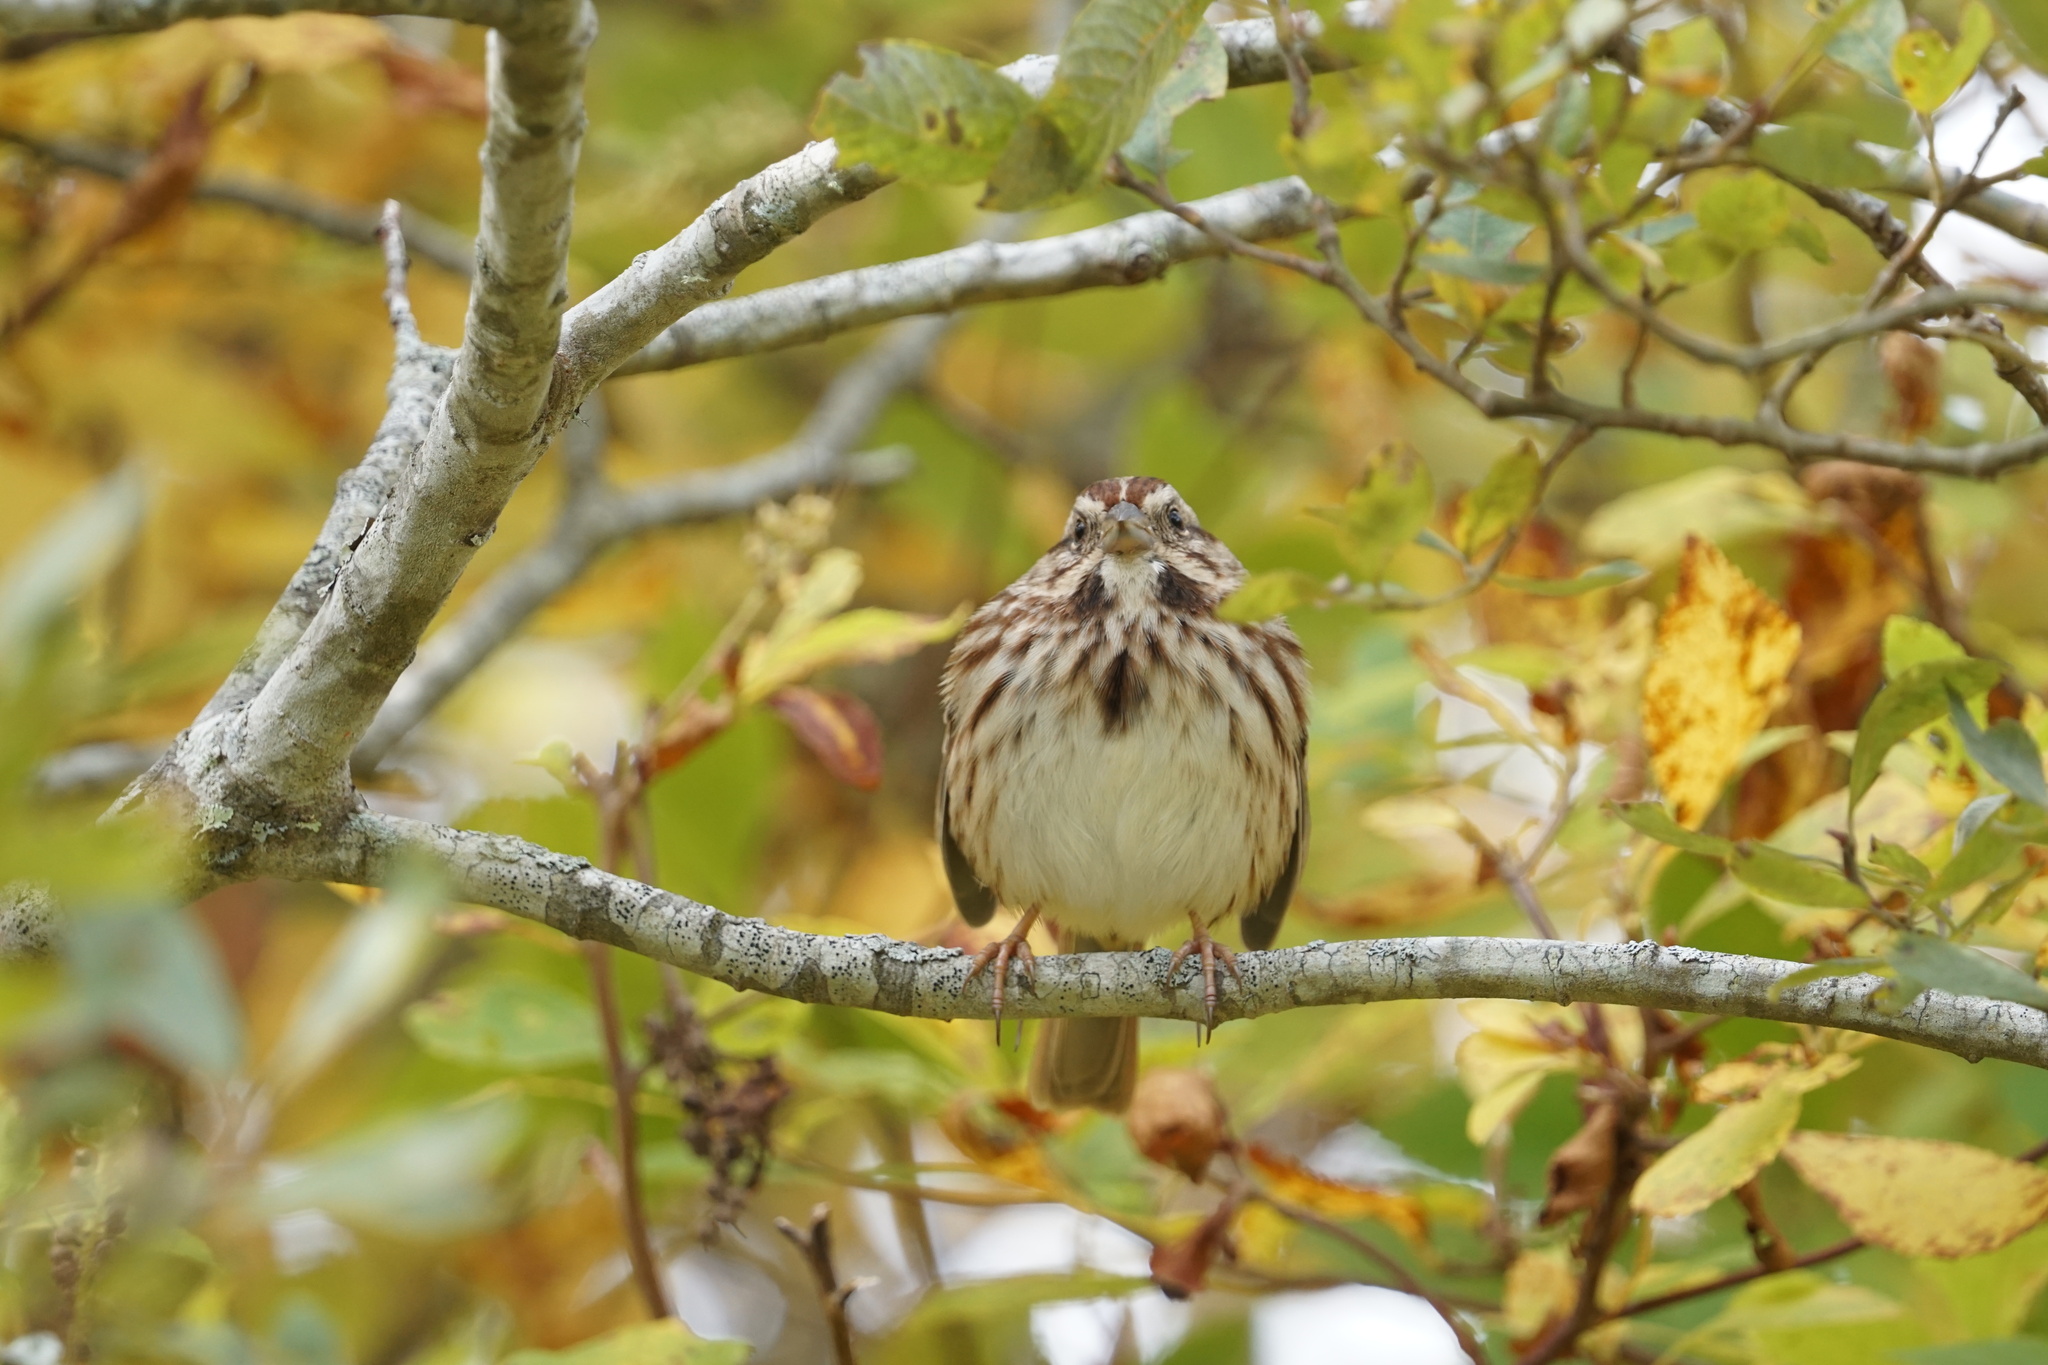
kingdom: Animalia
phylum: Chordata
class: Aves
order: Passeriformes
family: Passerellidae
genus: Melospiza
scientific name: Melospiza melodia
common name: Song sparrow
